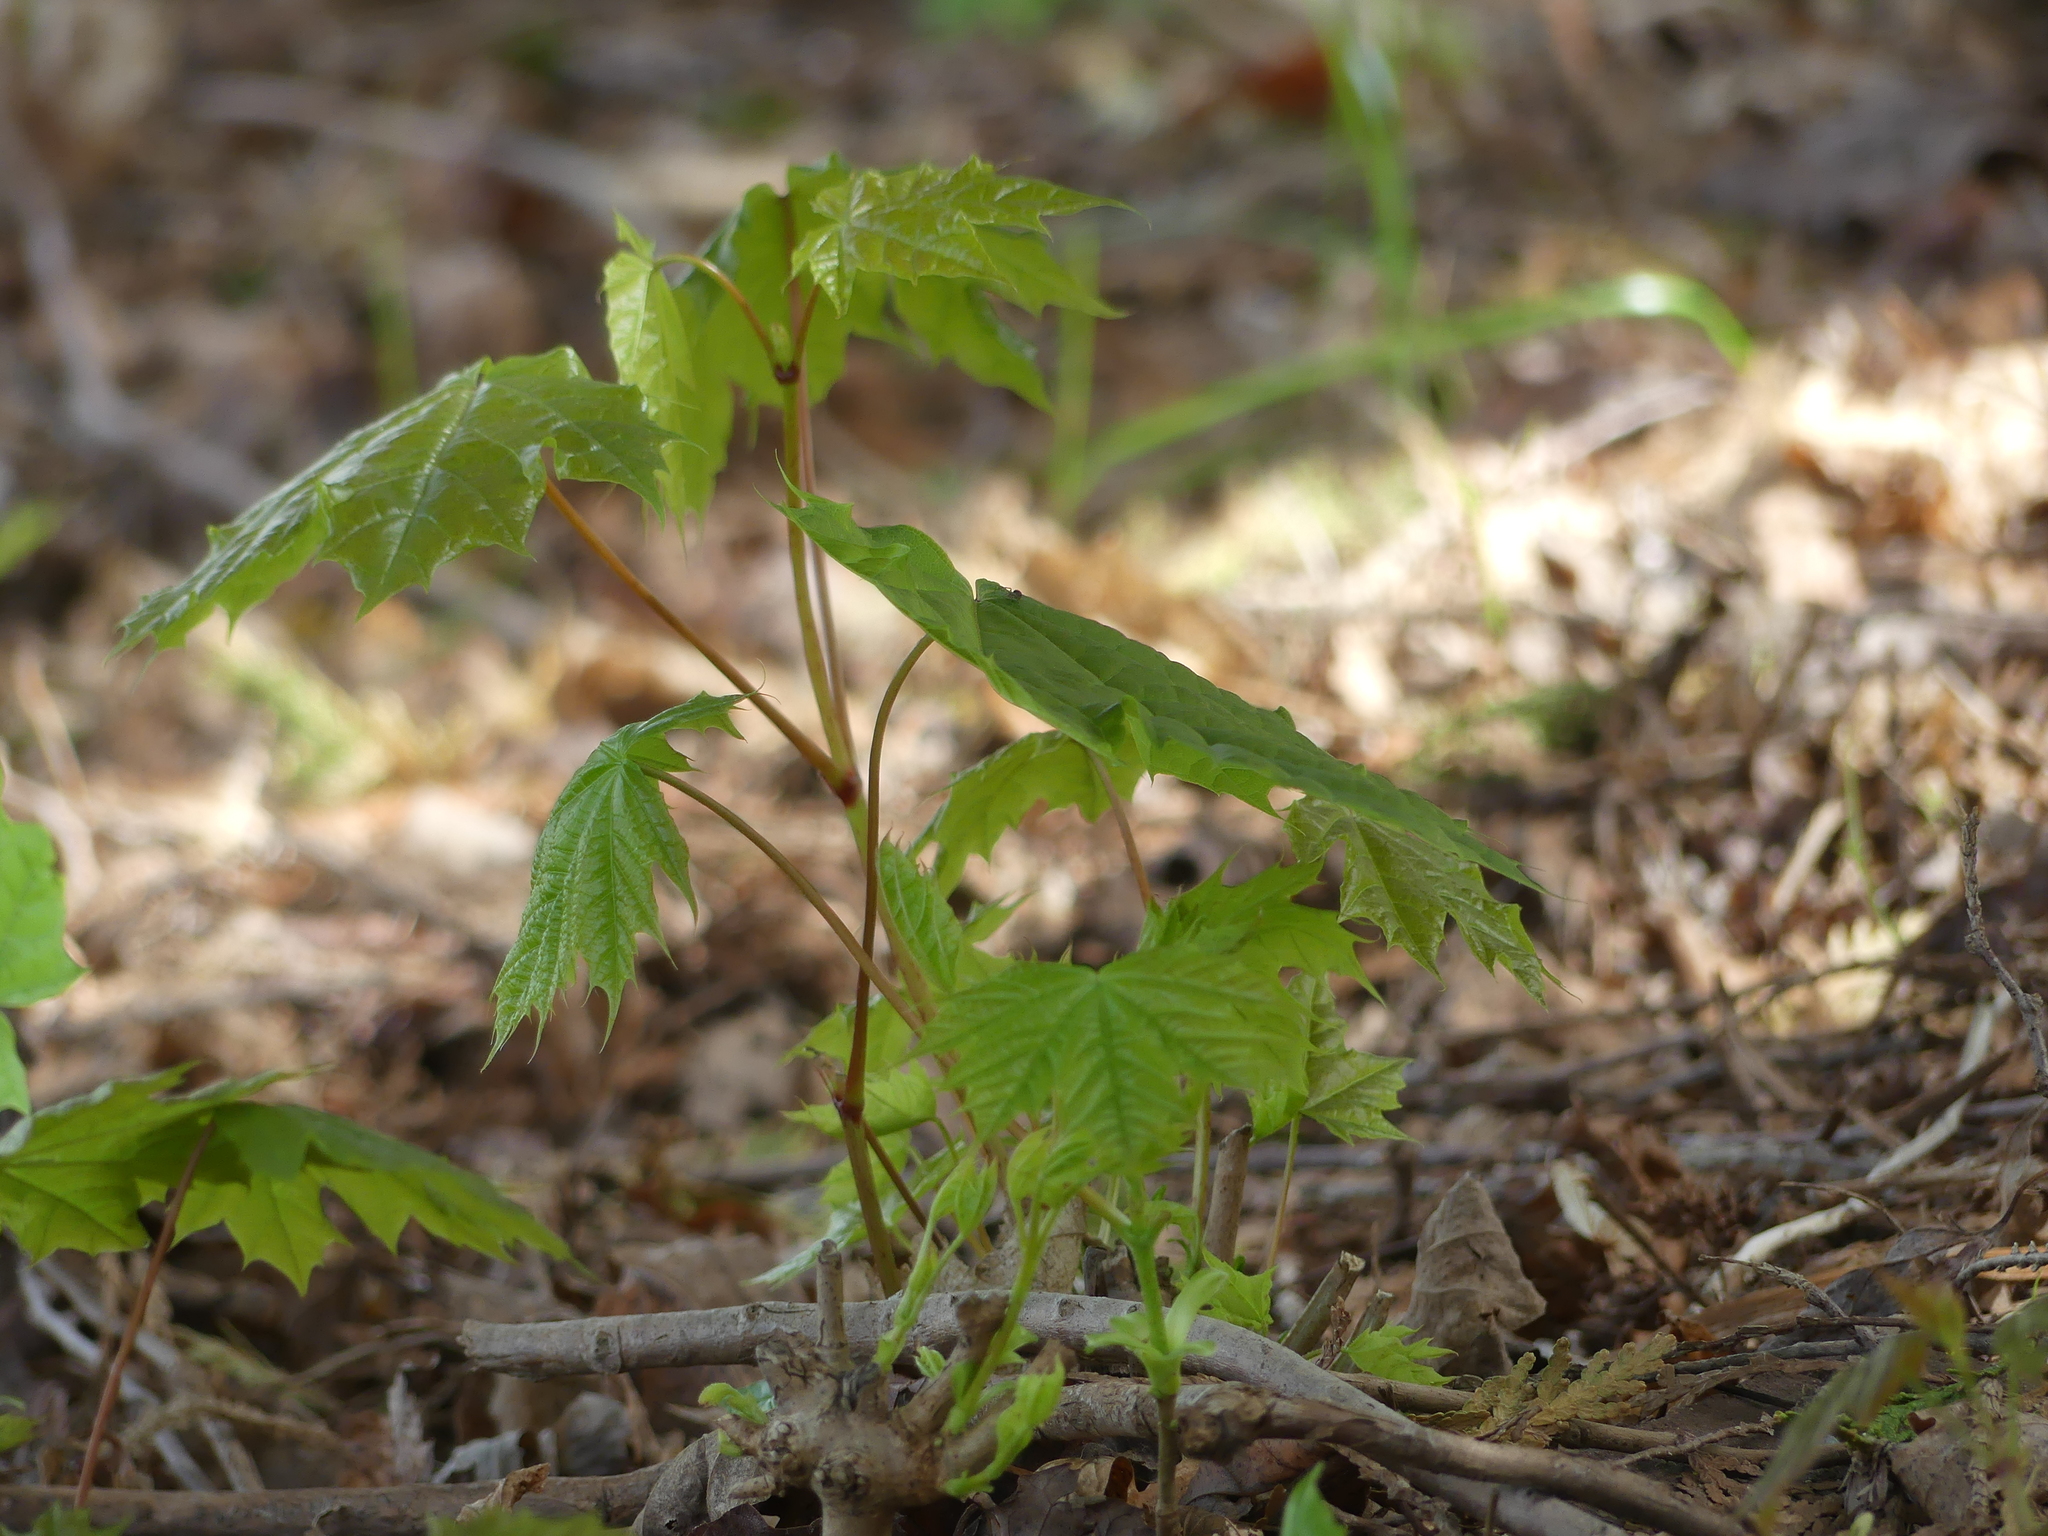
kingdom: Plantae
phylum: Tracheophyta
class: Magnoliopsida
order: Sapindales
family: Sapindaceae
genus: Acer
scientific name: Acer platanoides
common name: Norway maple
